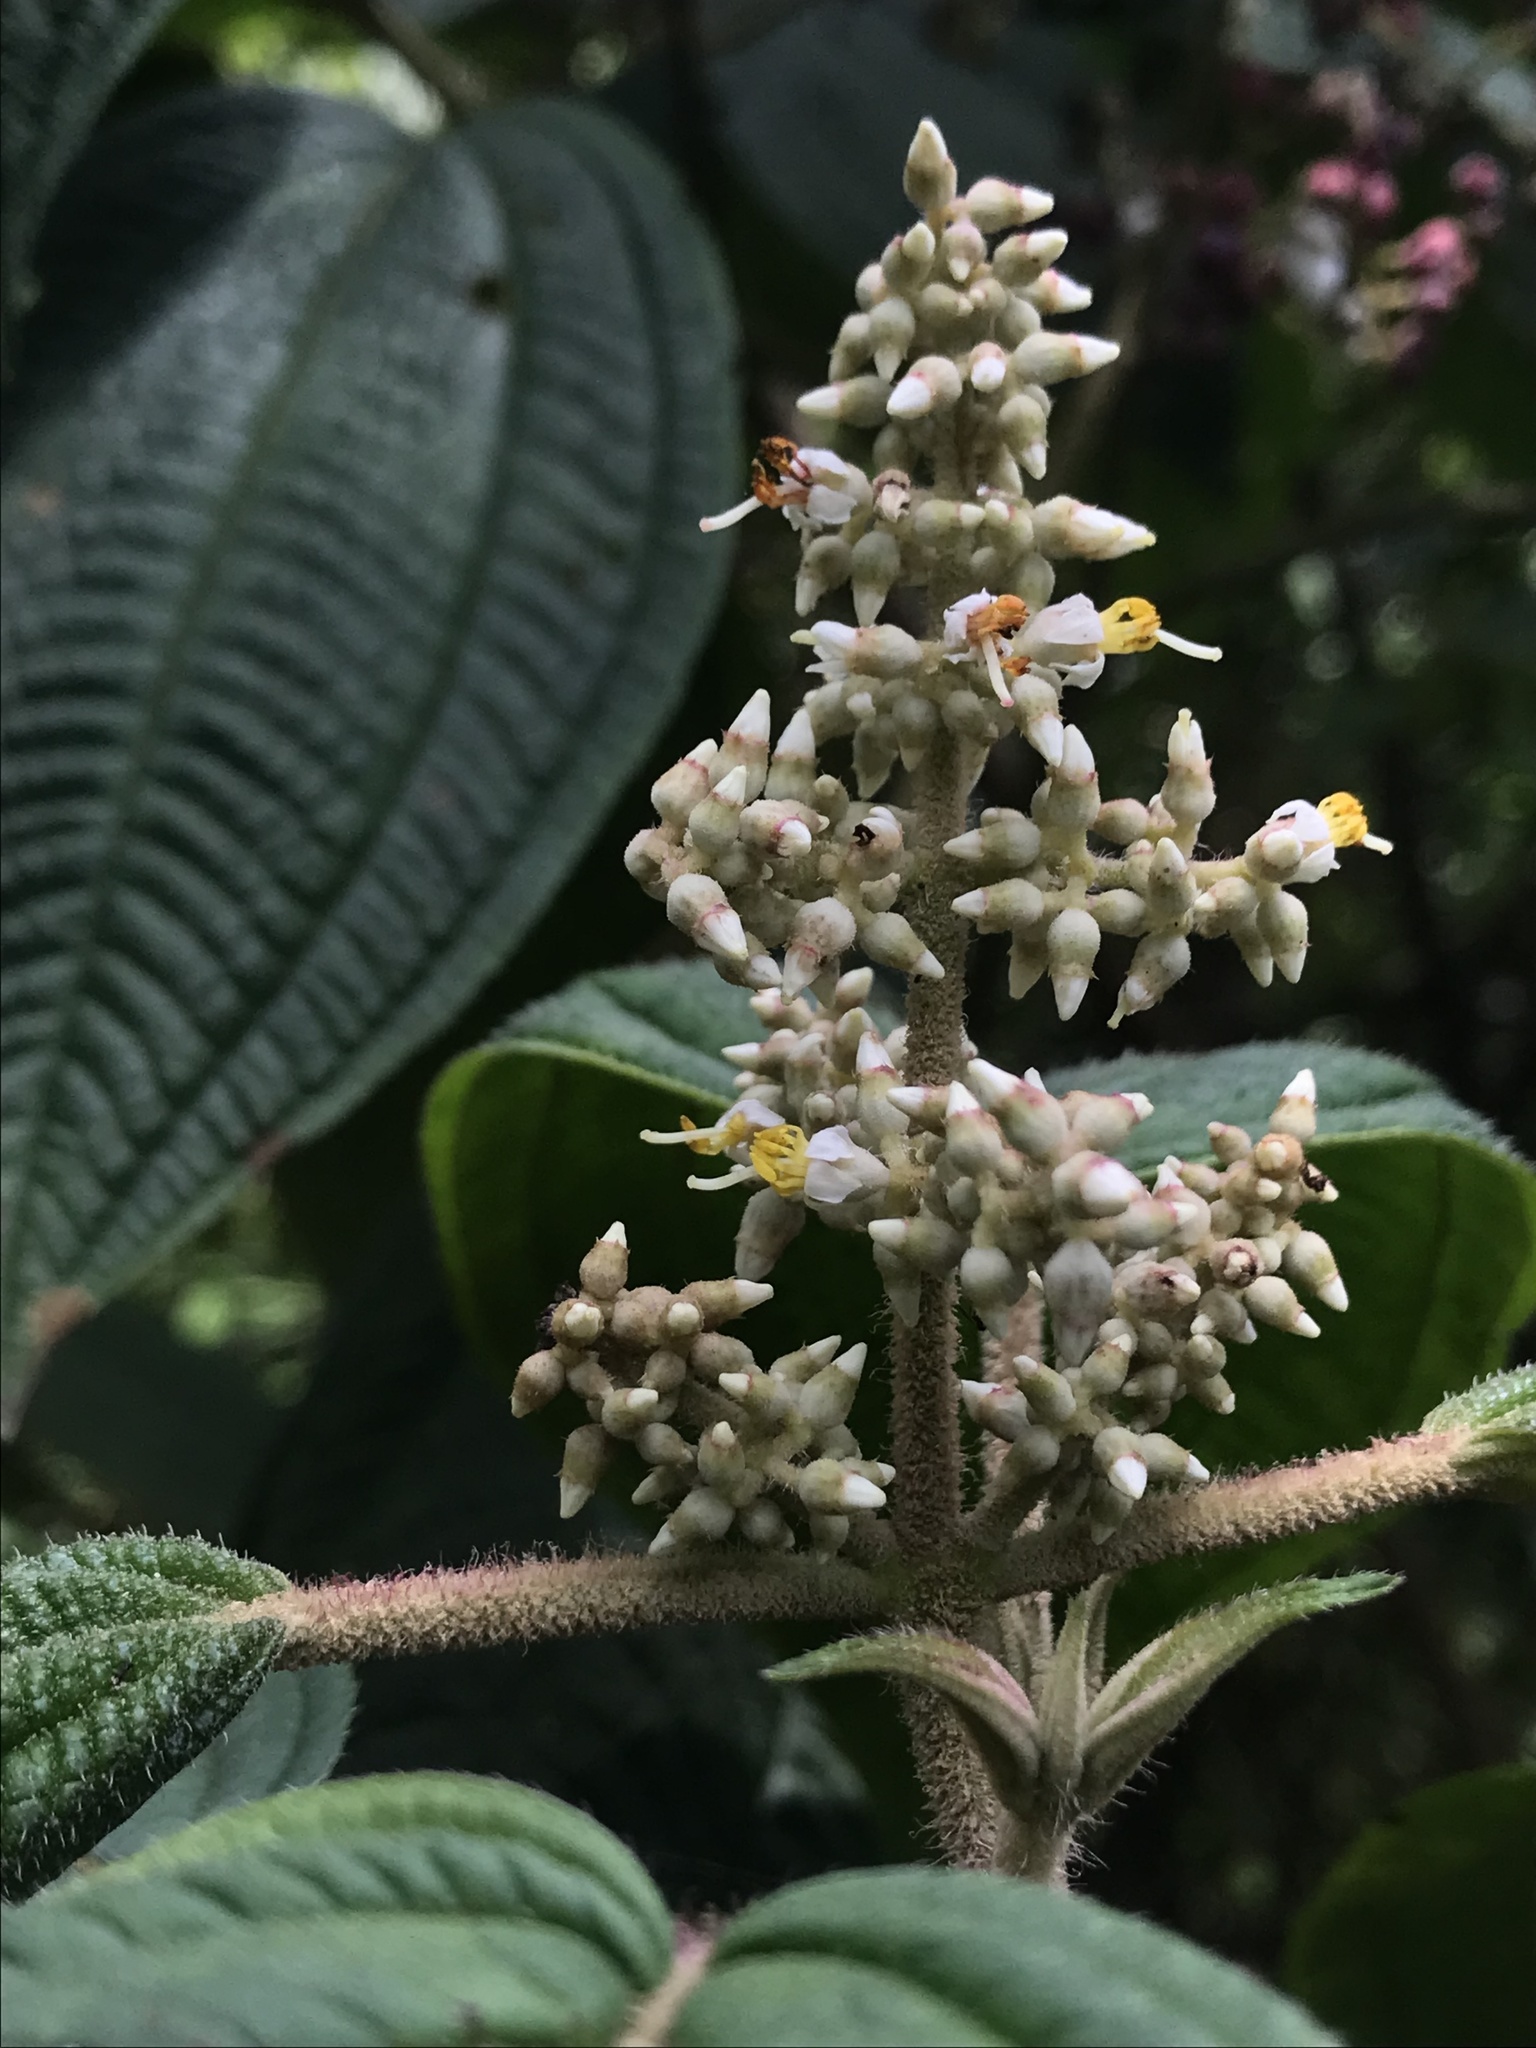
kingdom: Plantae
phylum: Tracheophyta
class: Magnoliopsida
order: Myrtales
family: Melastomataceae
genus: Miconia
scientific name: Miconia subseriata
